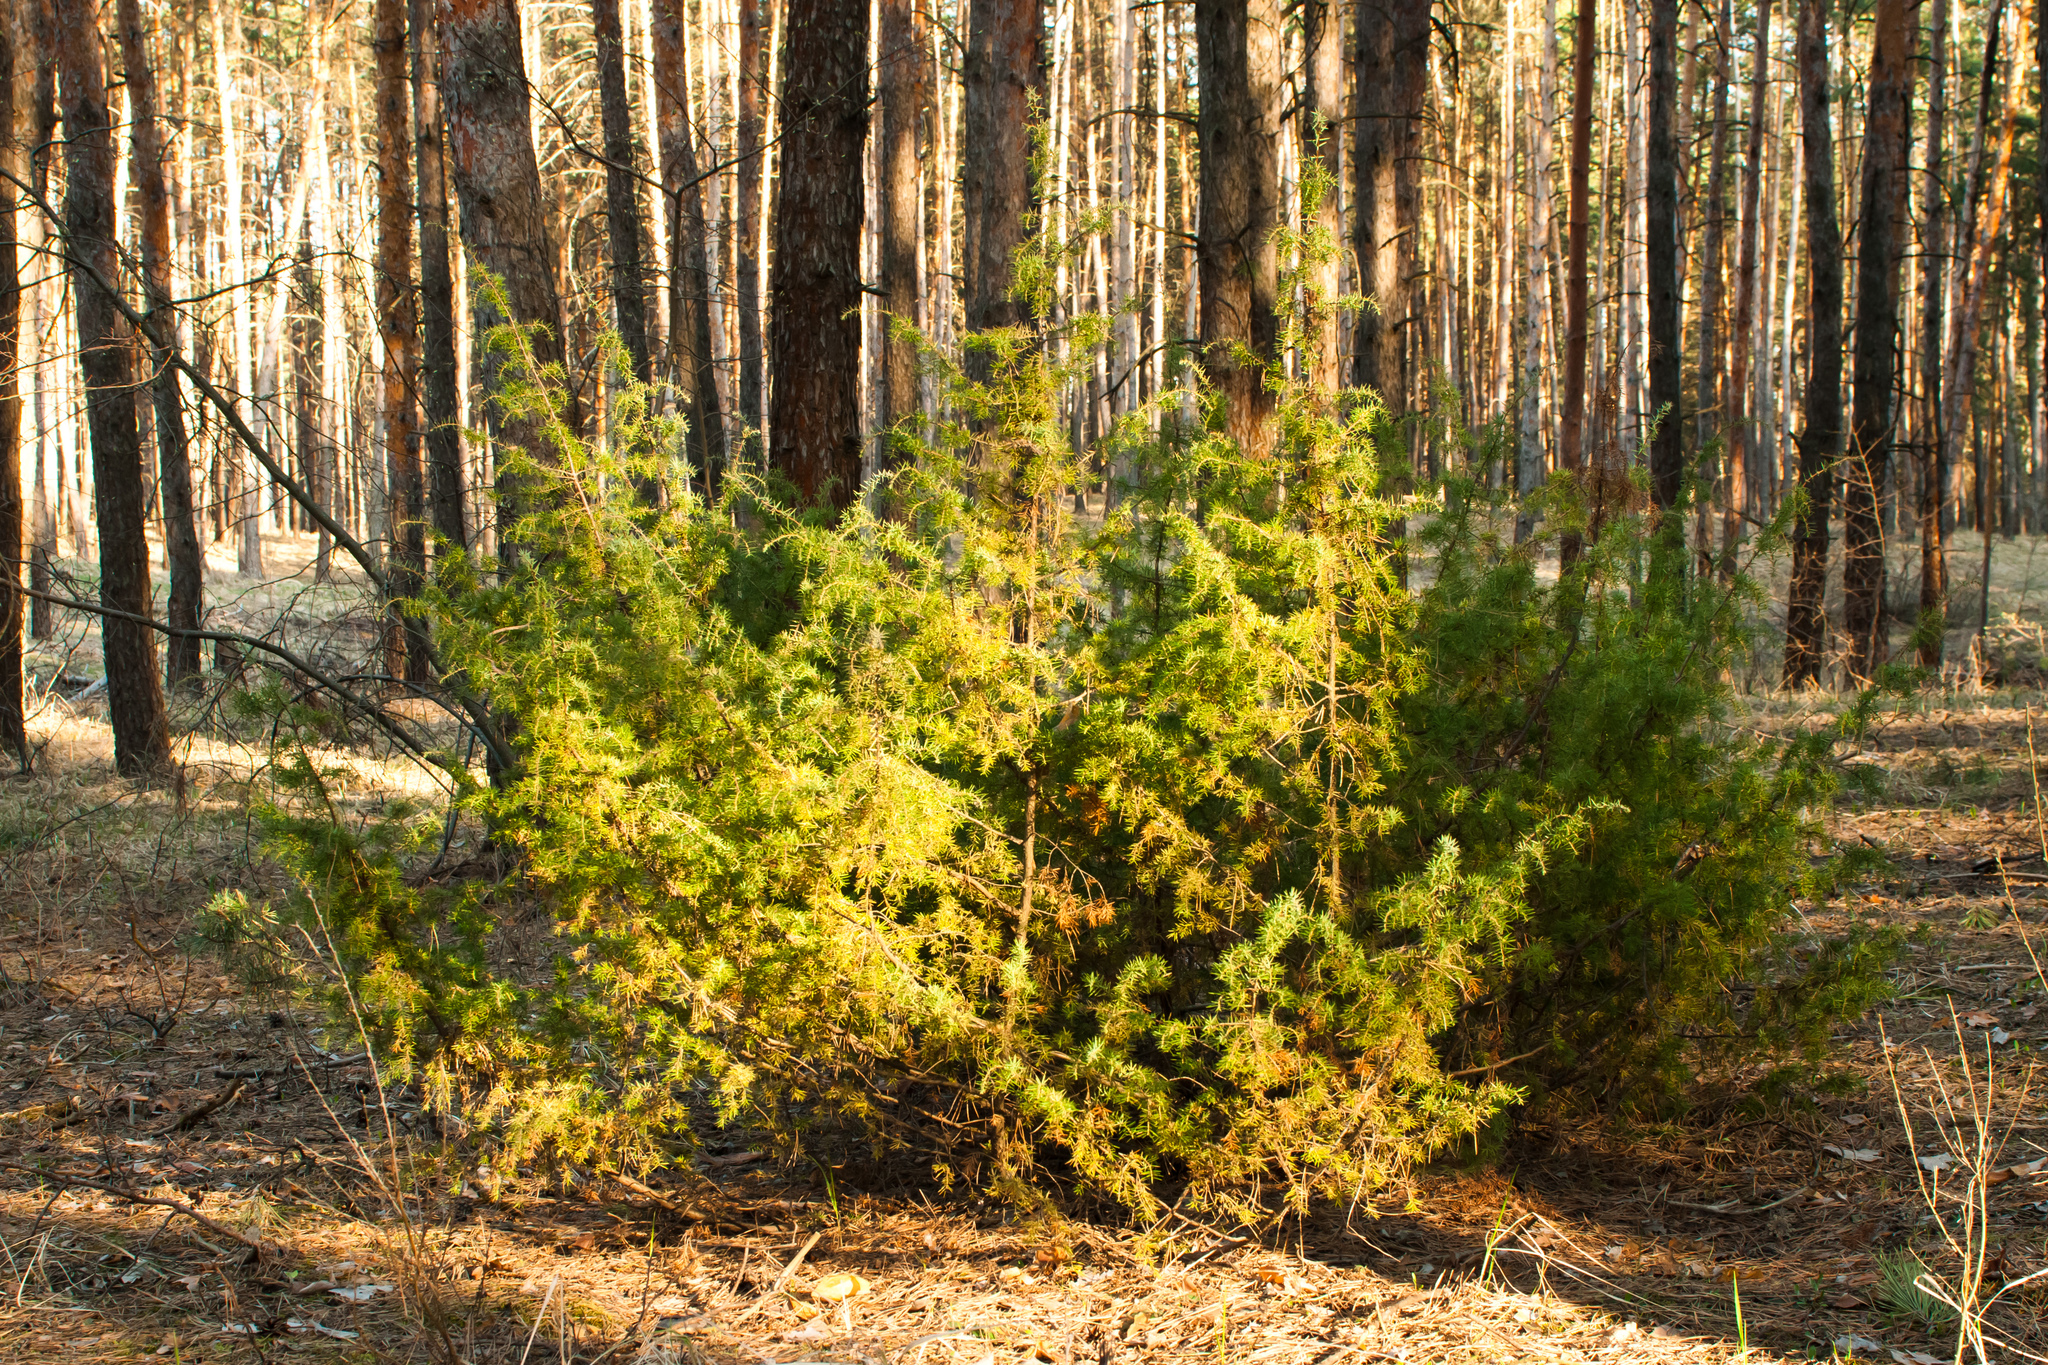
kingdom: Plantae
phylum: Tracheophyta
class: Pinopsida
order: Pinales
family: Cupressaceae
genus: Juniperus
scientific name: Juniperus communis
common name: Common juniper
